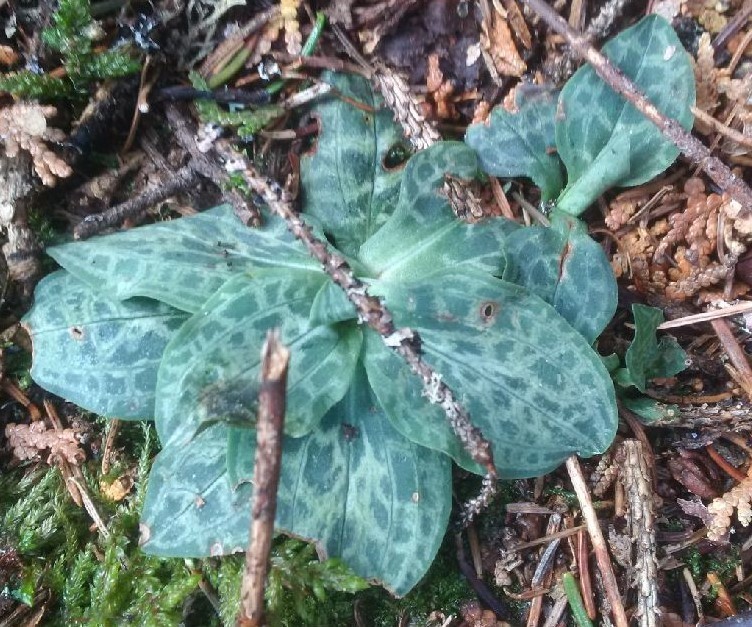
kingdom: Plantae
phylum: Tracheophyta
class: Liliopsida
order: Asparagales
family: Orchidaceae
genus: Goodyera
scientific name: Goodyera tesselata
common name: Checkered rattlesnake-plantain
